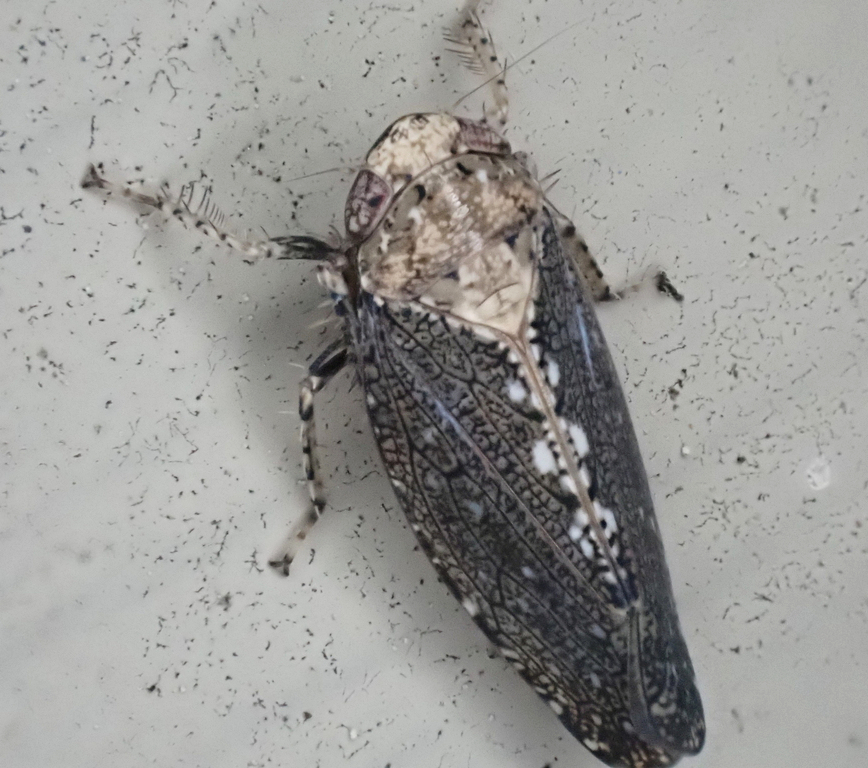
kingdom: Animalia
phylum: Arthropoda
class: Insecta
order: Hemiptera
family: Cicadellidae
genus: Excultanus
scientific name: Excultanus excultus
